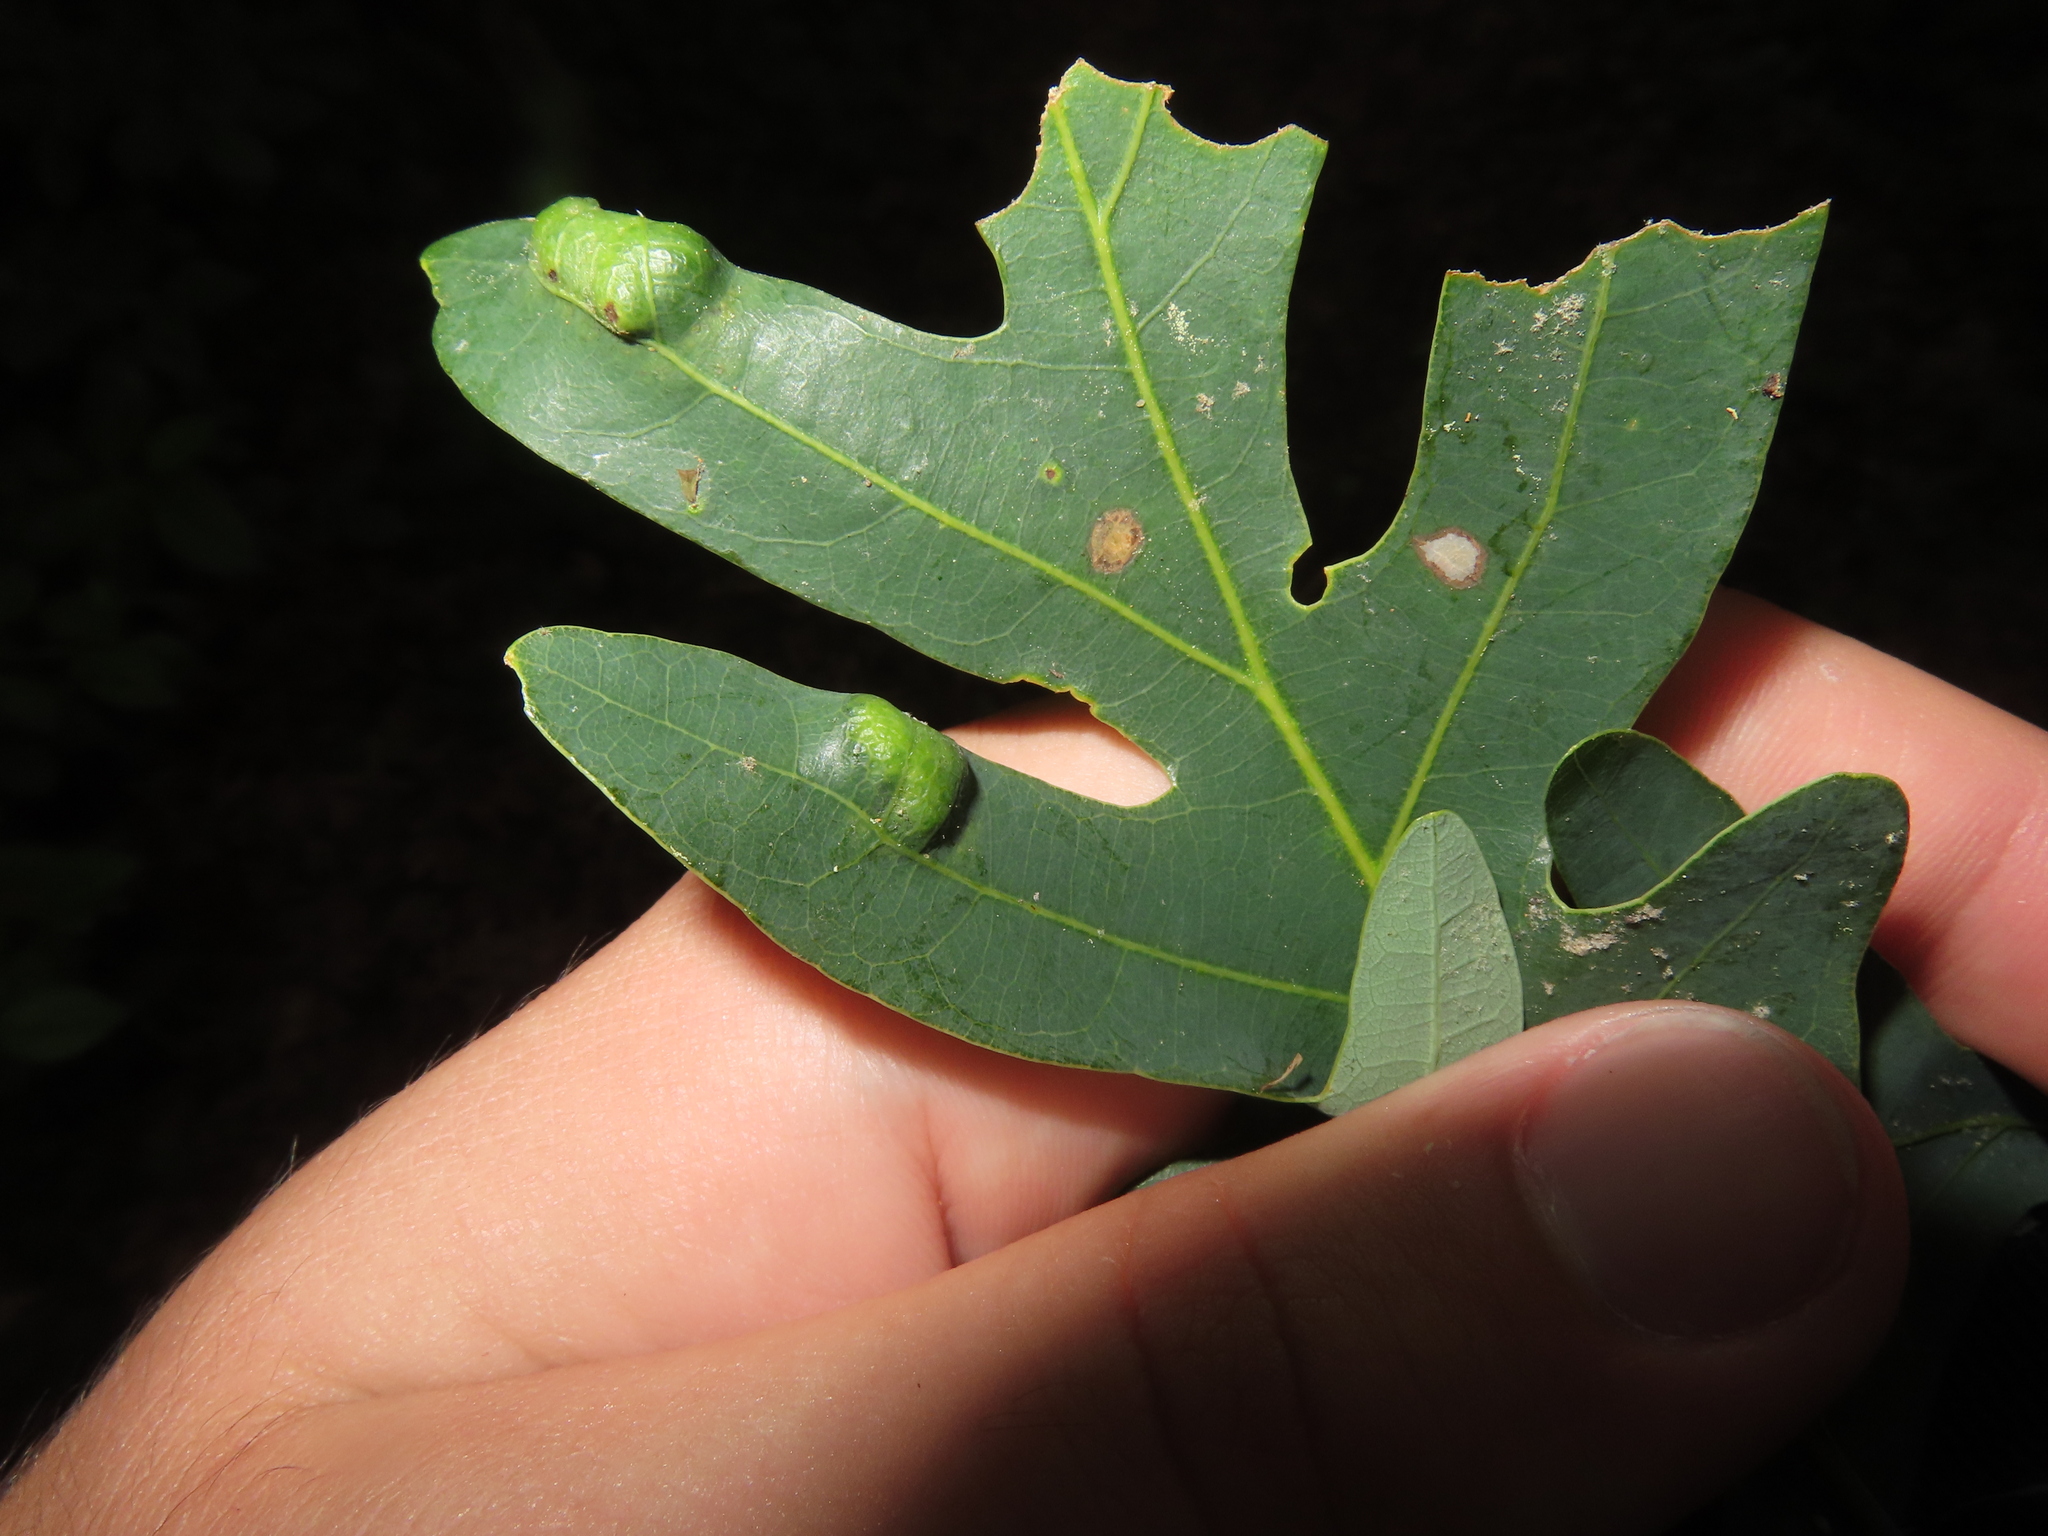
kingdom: Fungi
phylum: Ascomycota
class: Taphrinomycetes
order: Taphrinales
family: Taphrinaceae
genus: Taphrina
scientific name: Taphrina caerulescens
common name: Oak leaf blister
